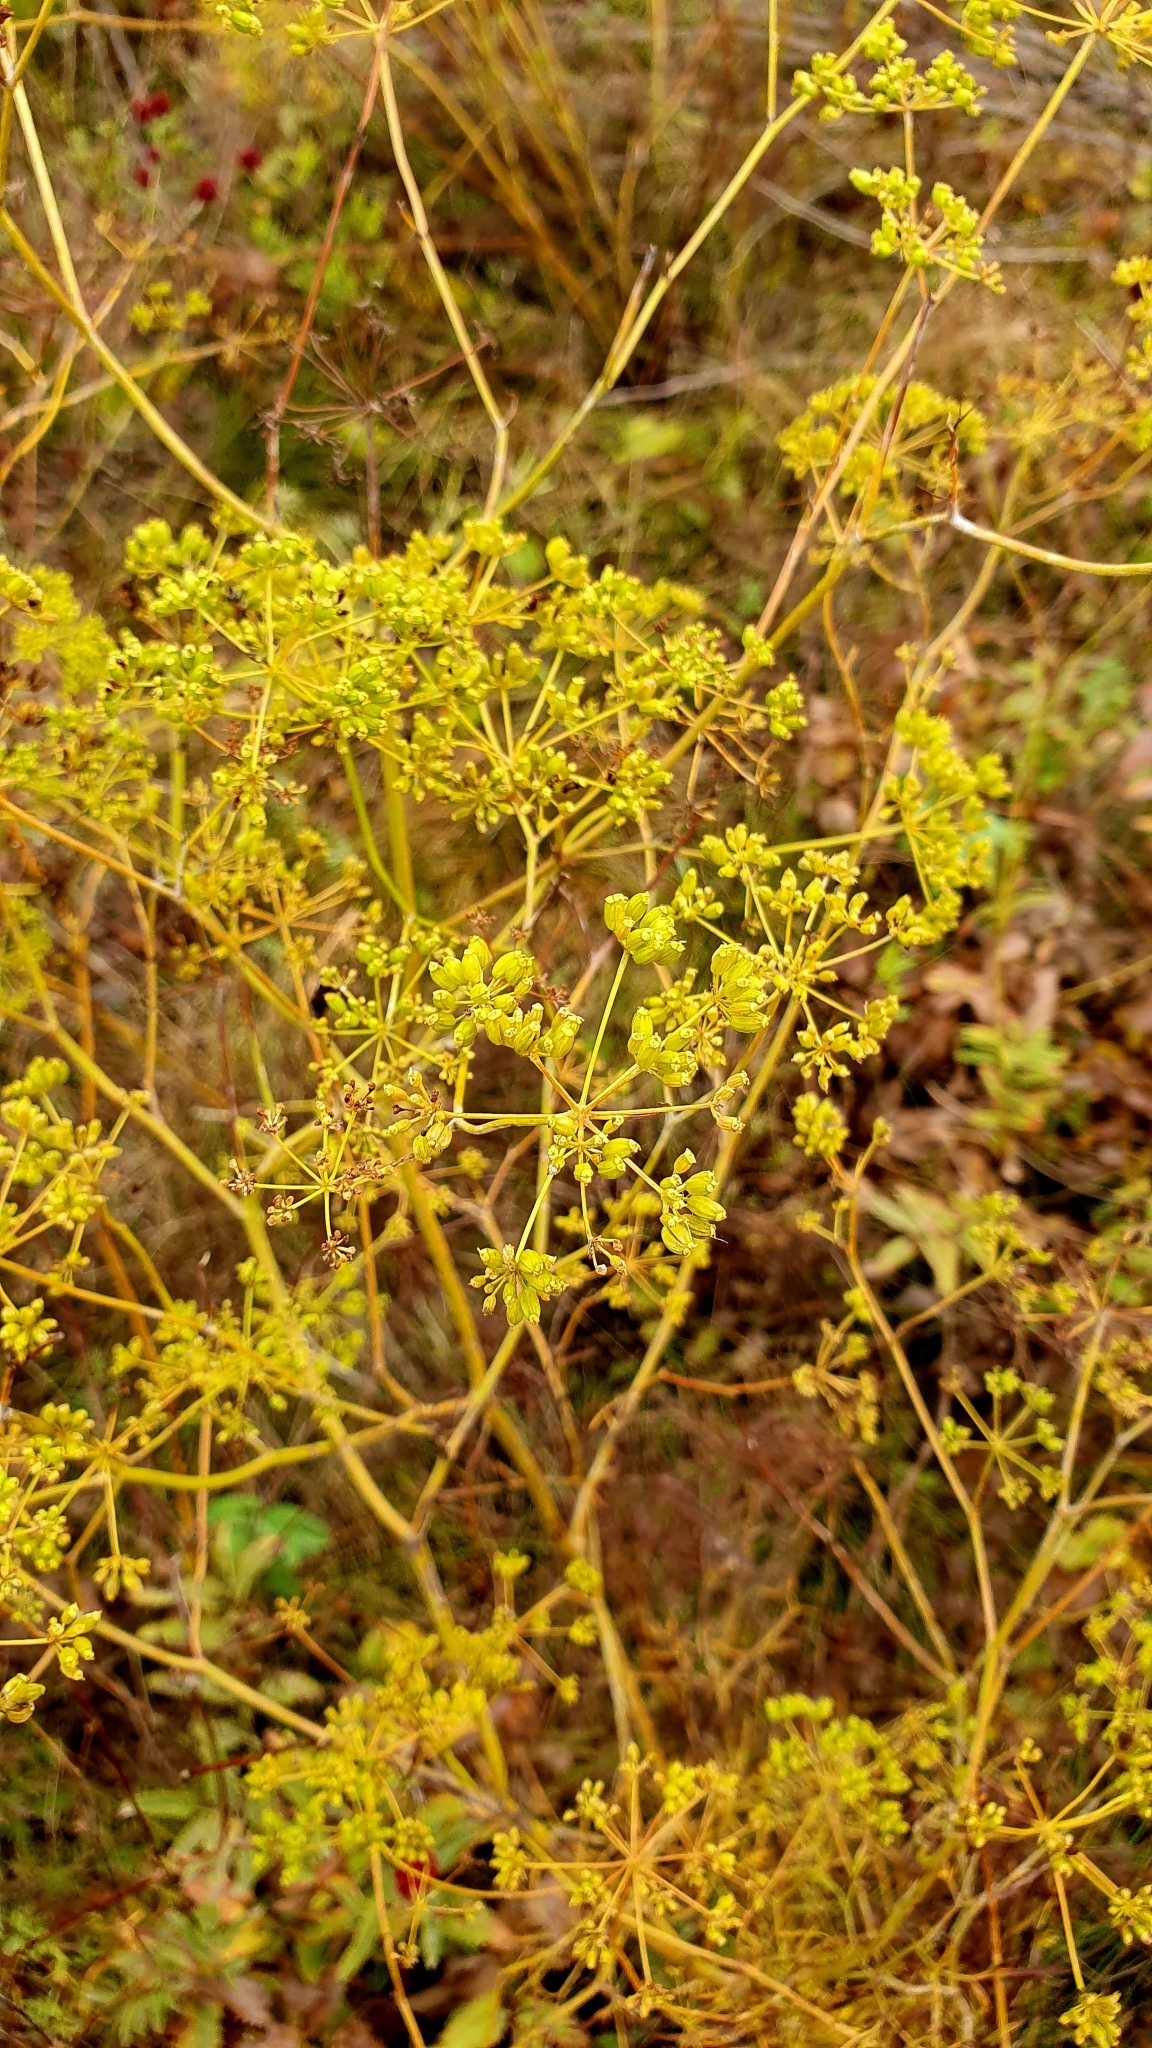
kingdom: Plantae
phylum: Tracheophyta
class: Magnoliopsida
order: Apiales
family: Apiaceae
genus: Silaum
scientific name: Silaum silaus
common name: Pepper-saxifrage
